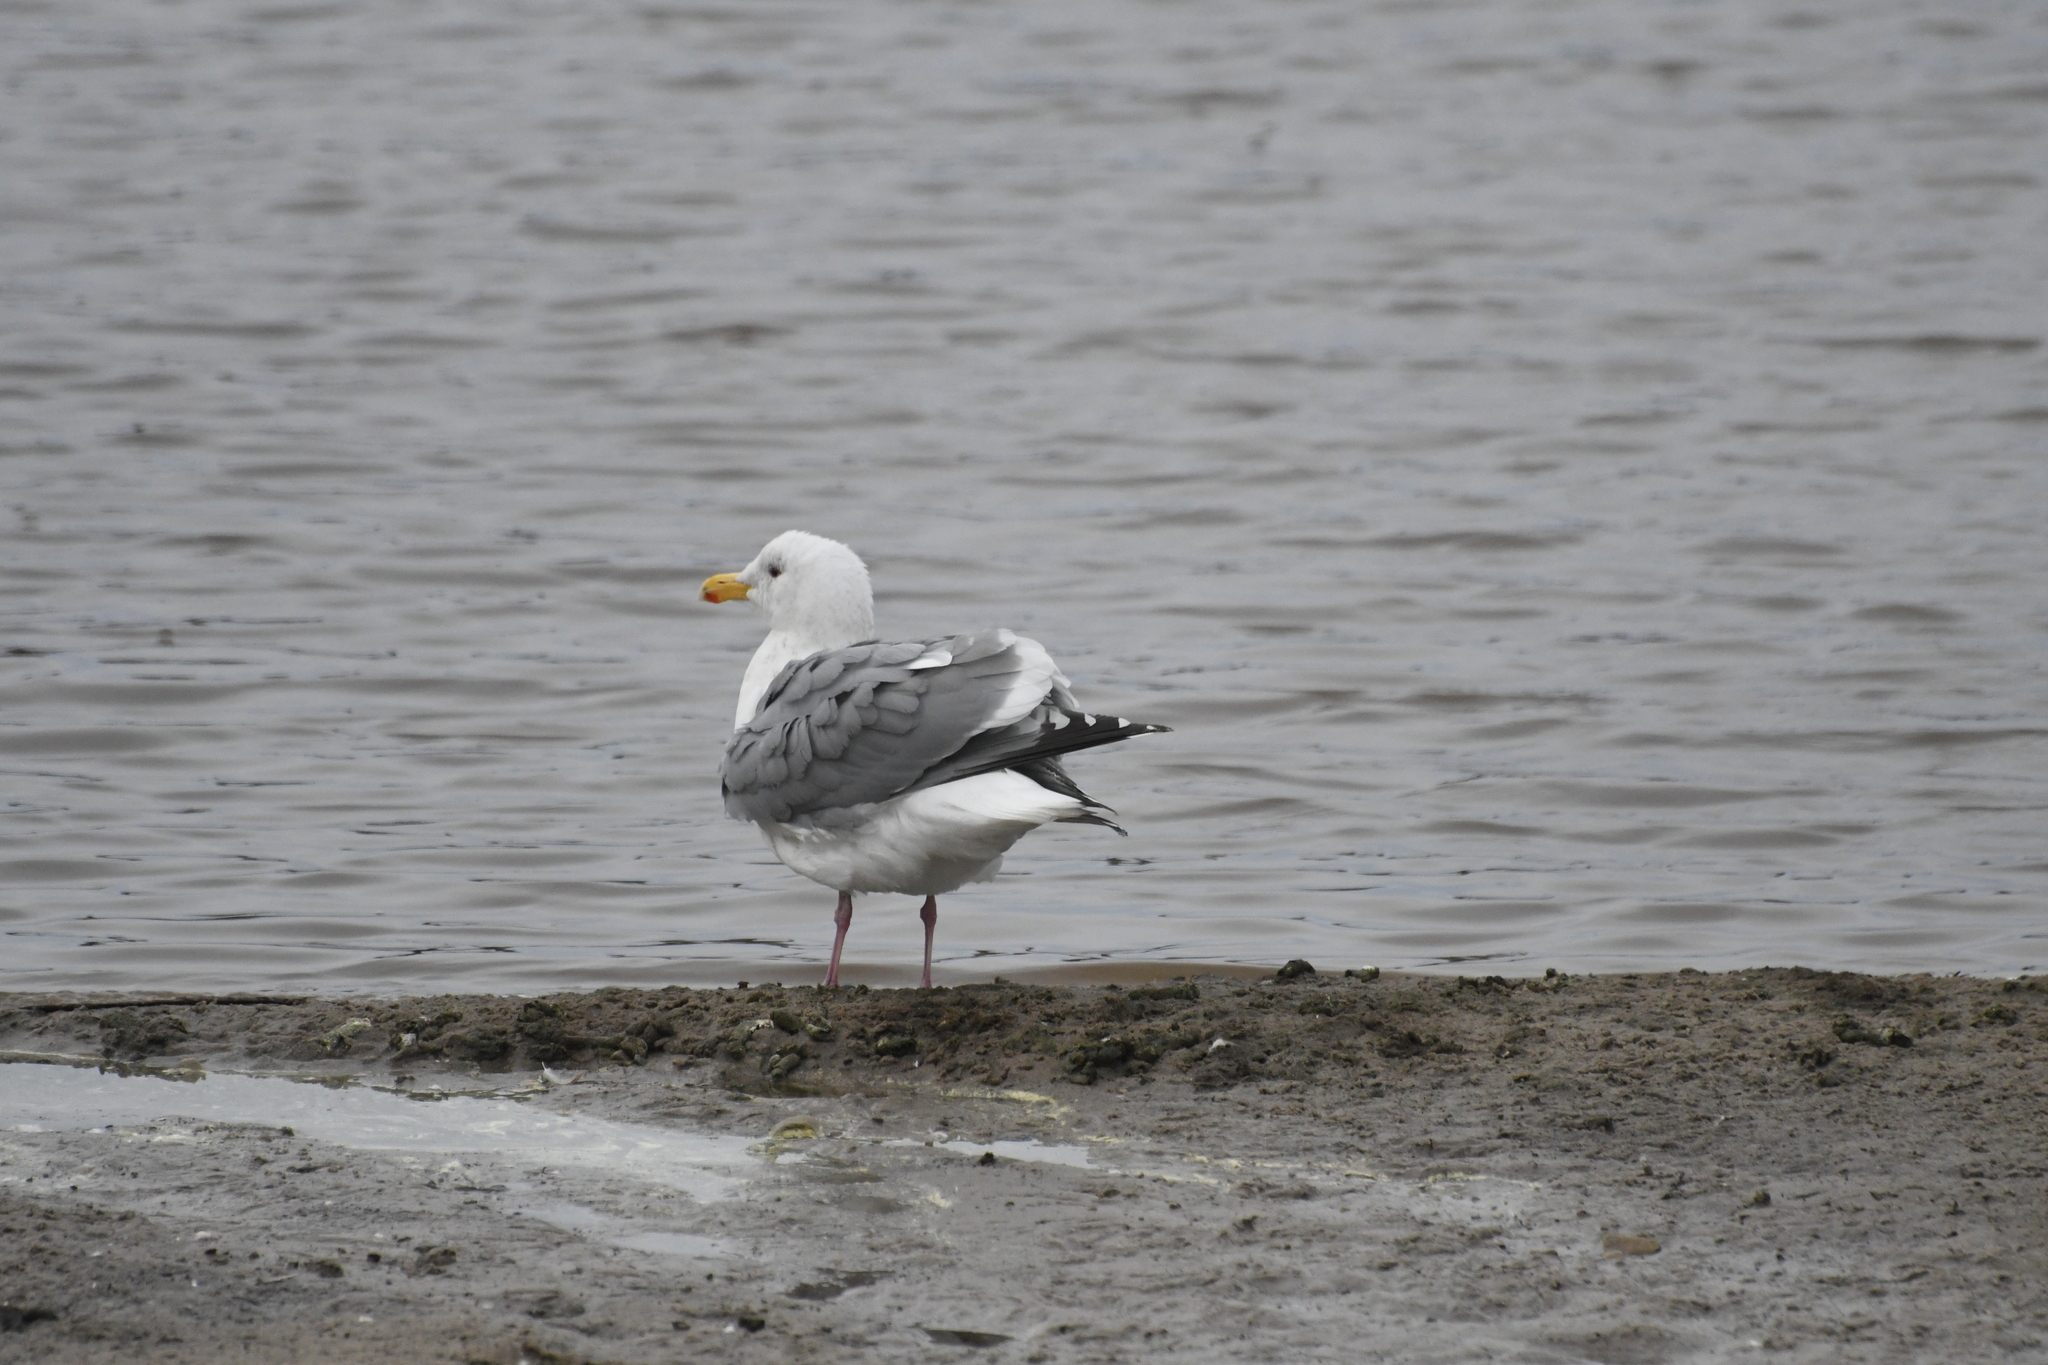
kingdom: Animalia
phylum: Chordata
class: Aves
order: Charadriiformes
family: Laridae
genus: Larus
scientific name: Larus occidentalis
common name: Western gull
